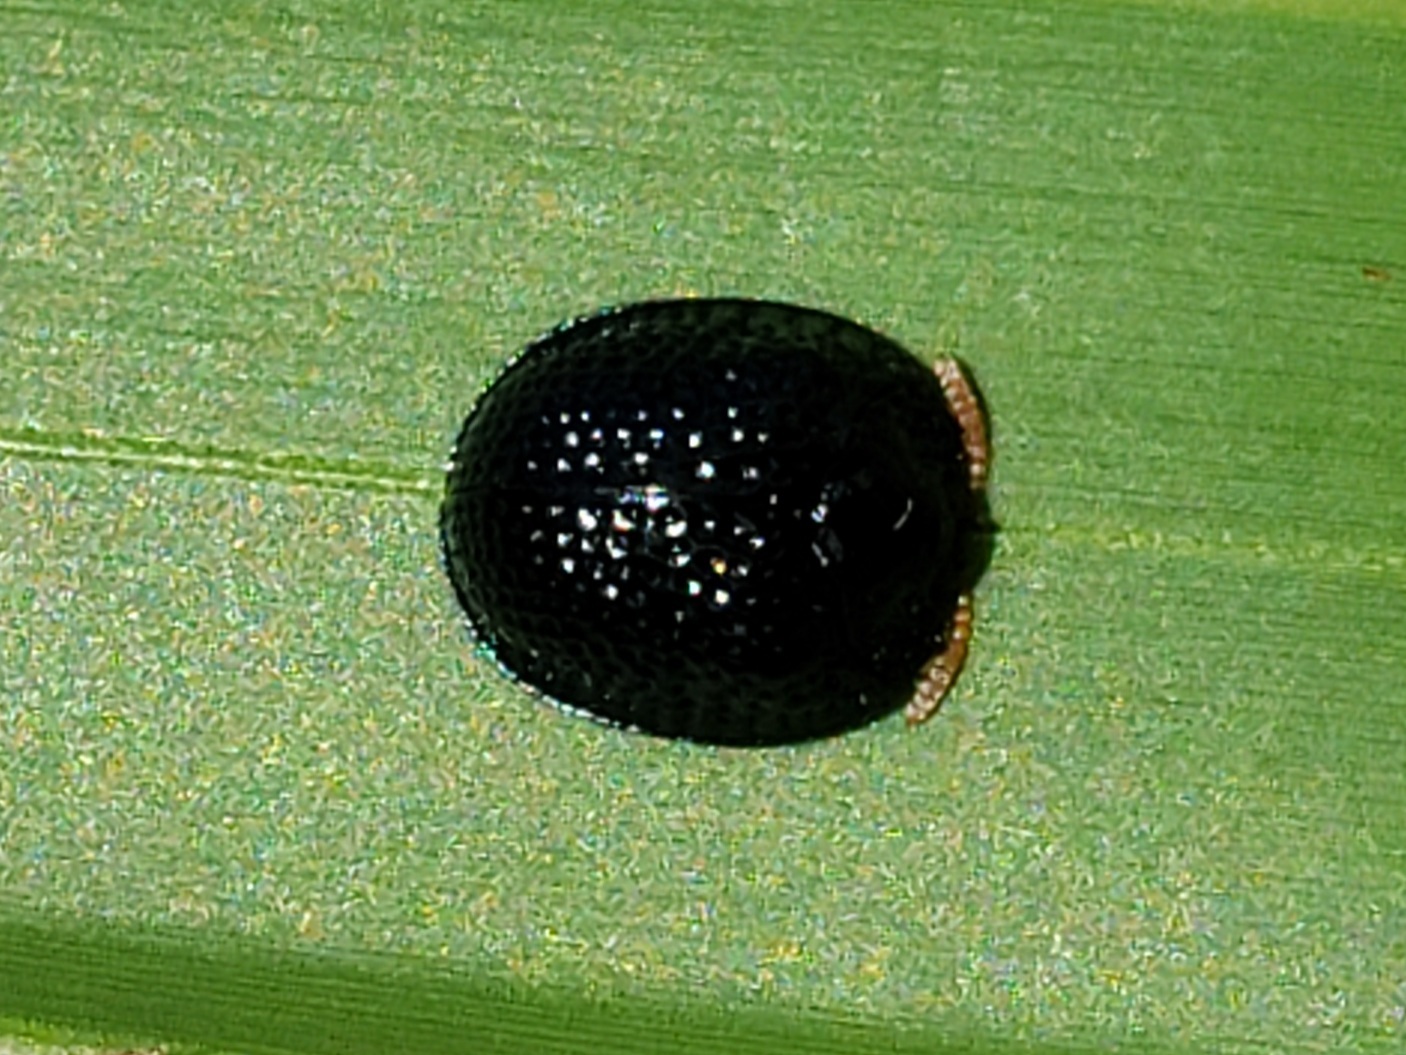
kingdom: Animalia
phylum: Arthropoda
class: Insecta
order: Coleoptera
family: Chrysomelidae
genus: Hemisphaerota
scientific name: Hemisphaerota cyanea
